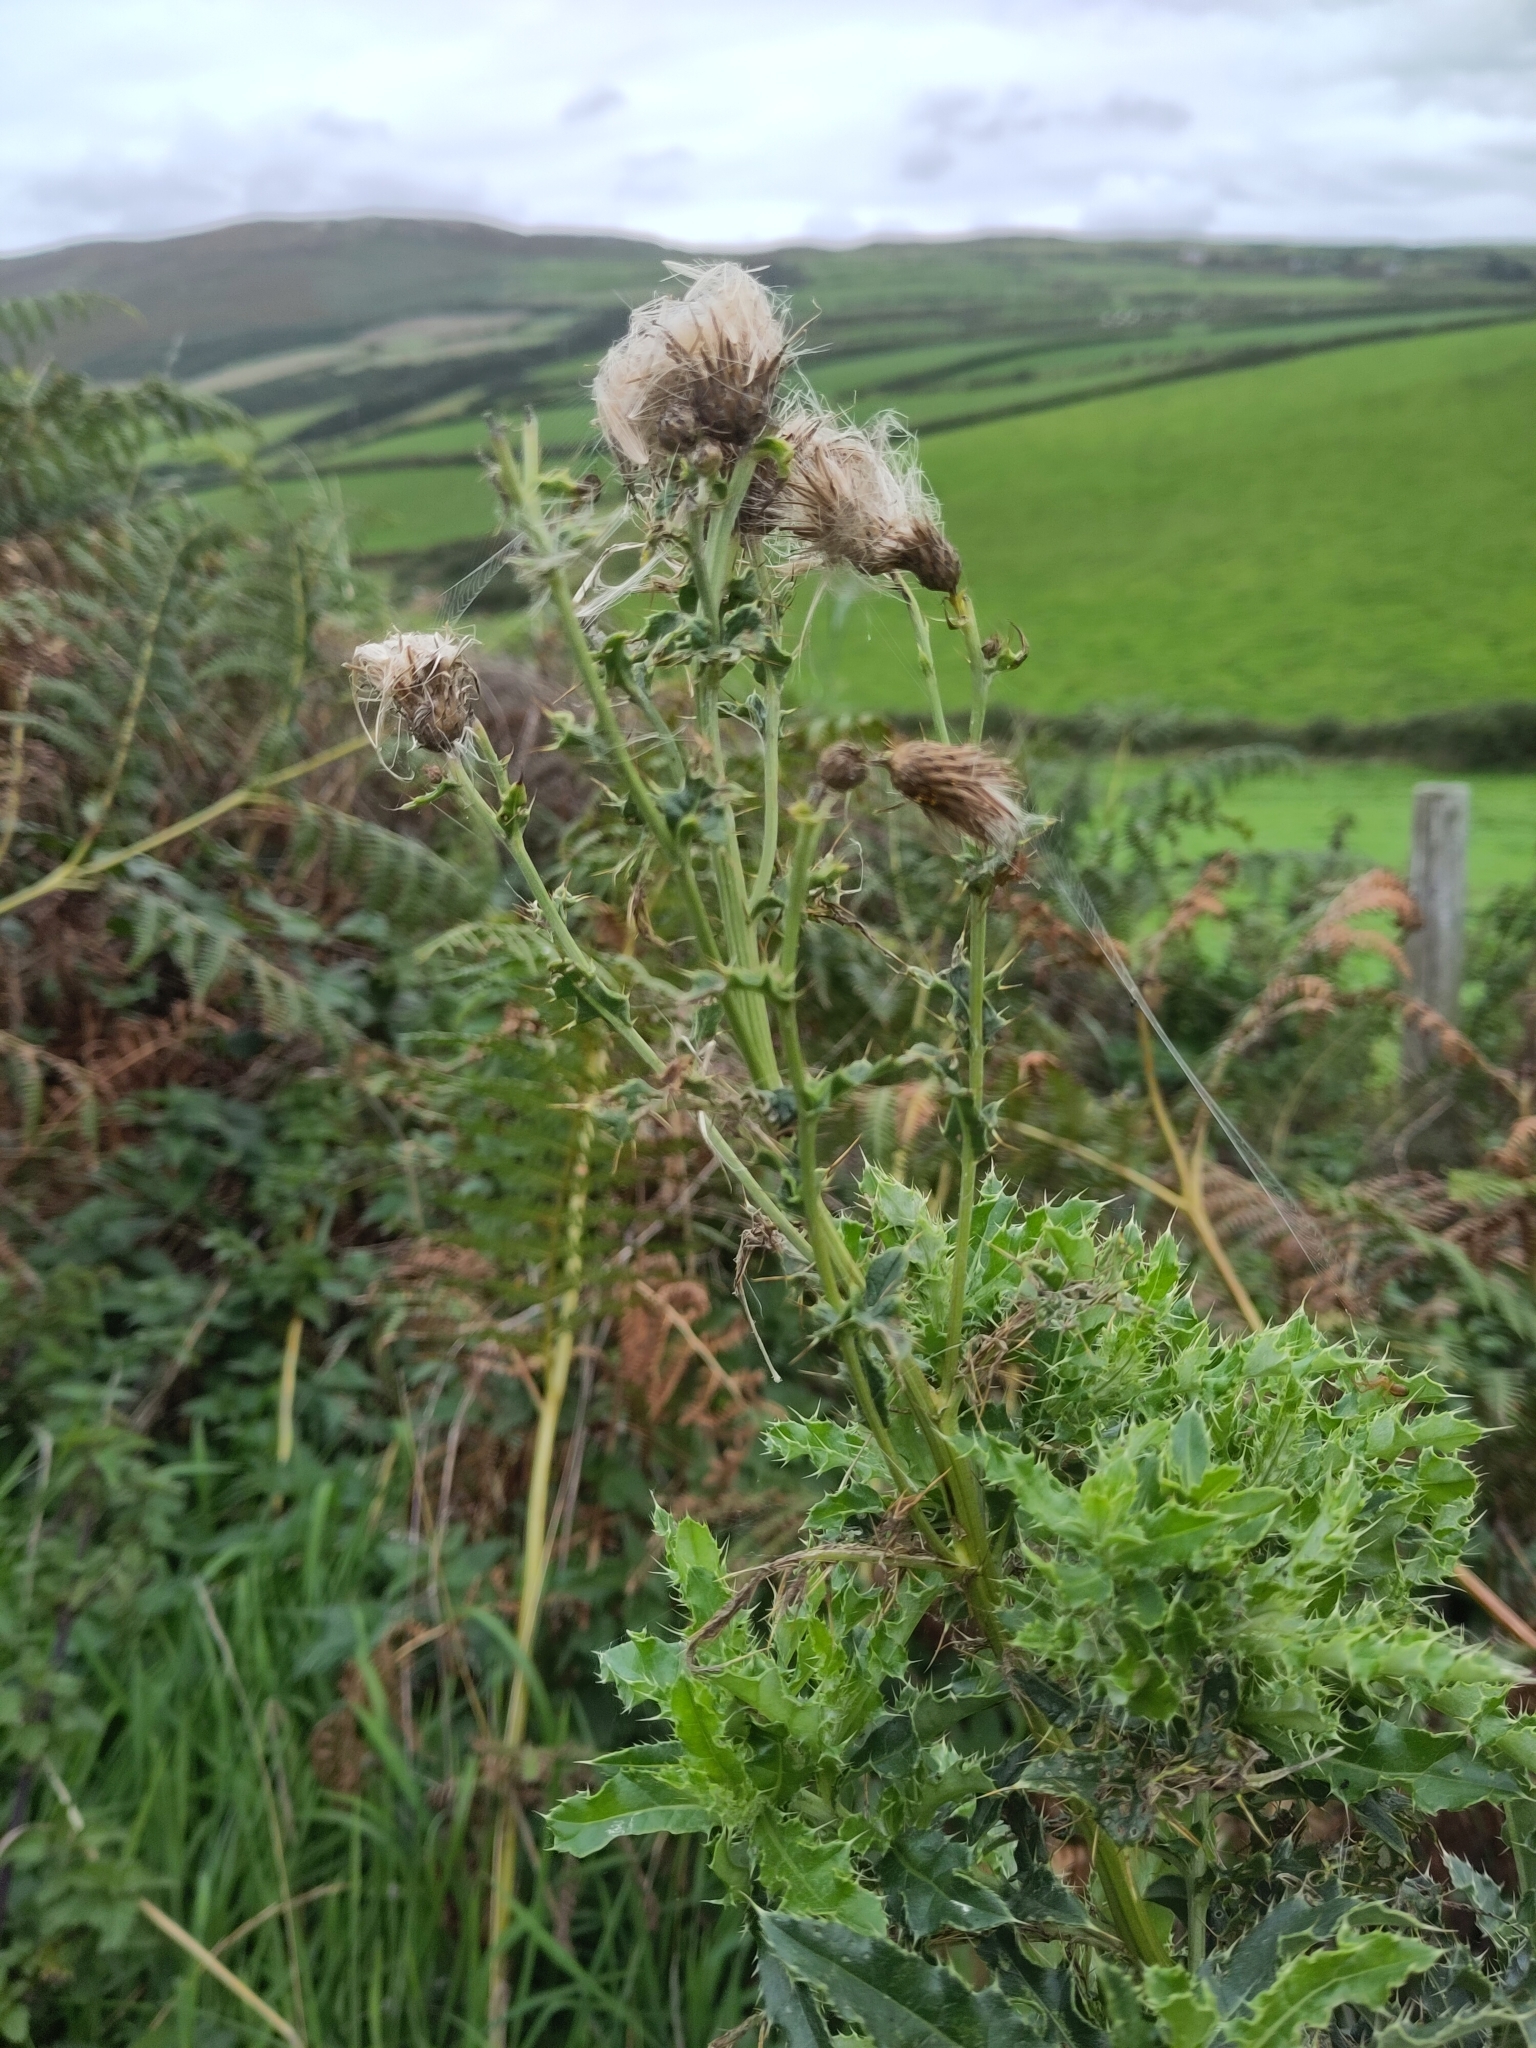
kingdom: Plantae
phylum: Tracheophyta
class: Magnoliopsida
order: Asterales
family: Asteraceae
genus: Cirsium
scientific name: Cirsium arvense
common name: Creeping thistle
